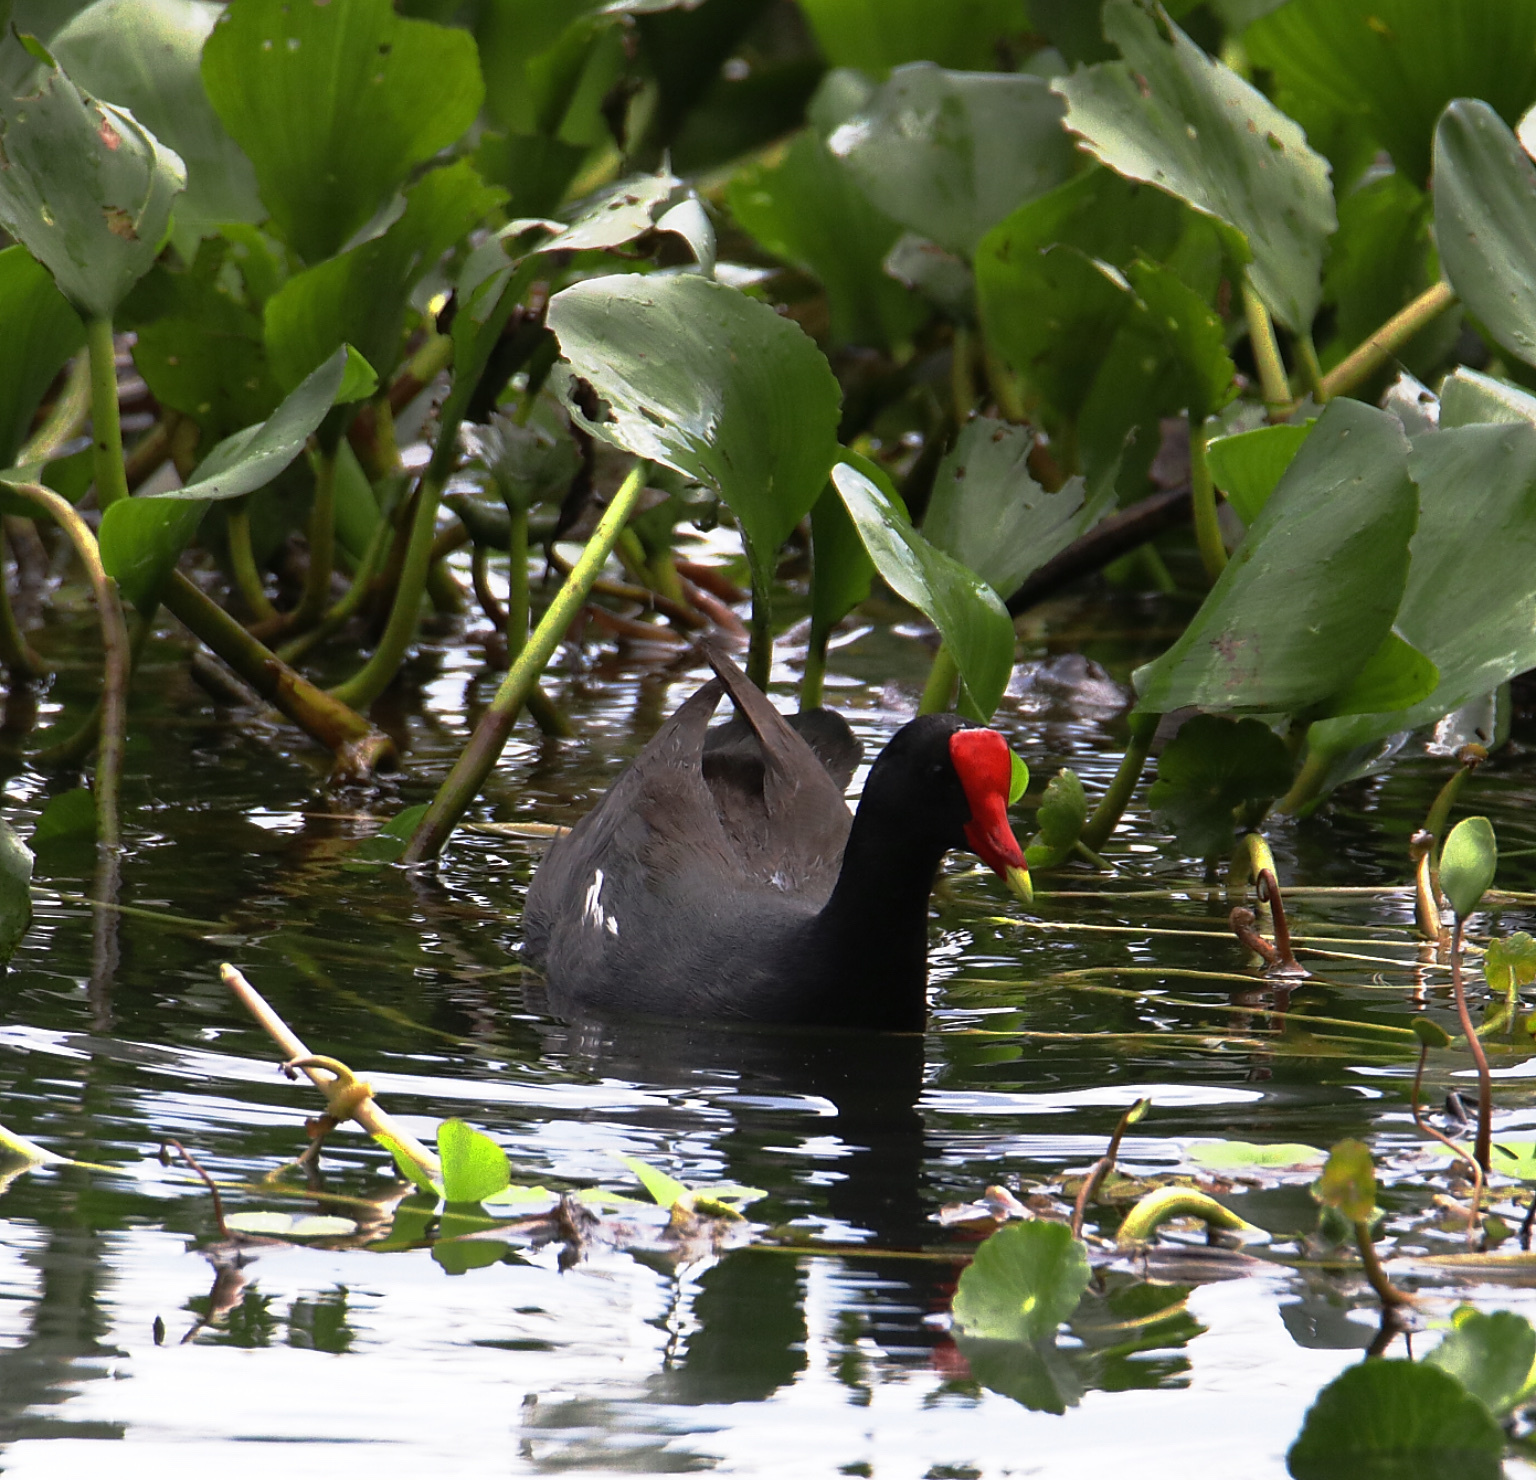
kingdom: Animalia
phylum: Chordata
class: Aves
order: Gruiformes
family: Rallidae
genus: Gallinula
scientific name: Gallinula chloropus
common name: Common moorhen
